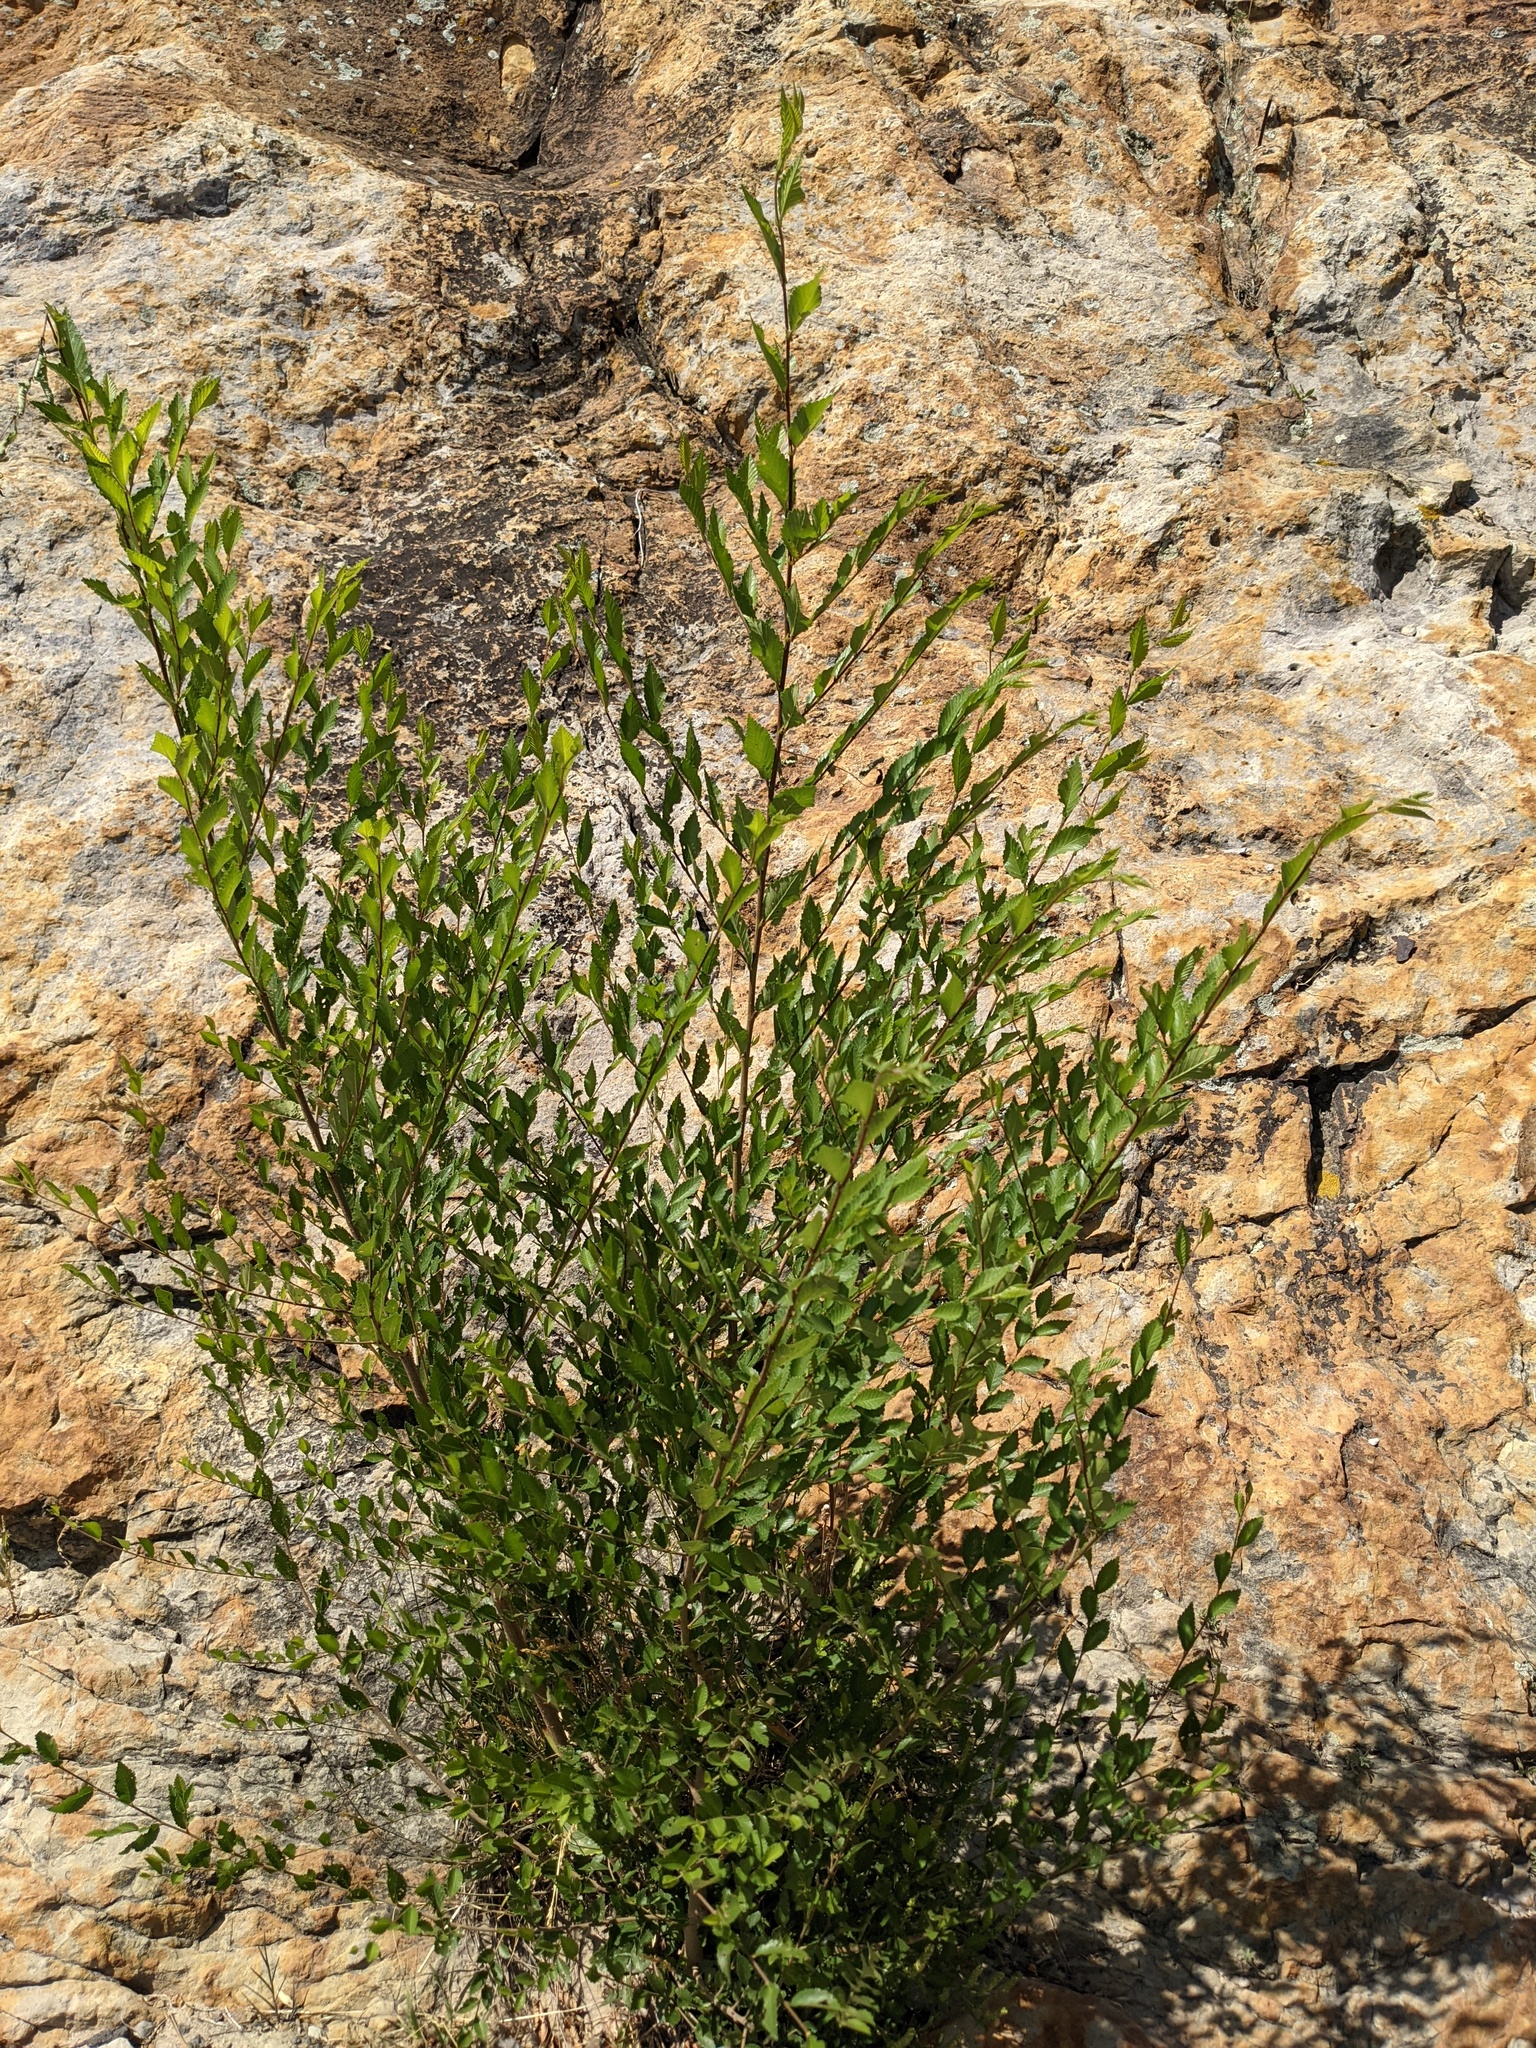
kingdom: Plantae
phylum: Tracheophyta
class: Magnoliopsida
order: Rosales
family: Ulmaceae
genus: Ulmus
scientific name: Ulmus pumila
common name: Siberian elm
